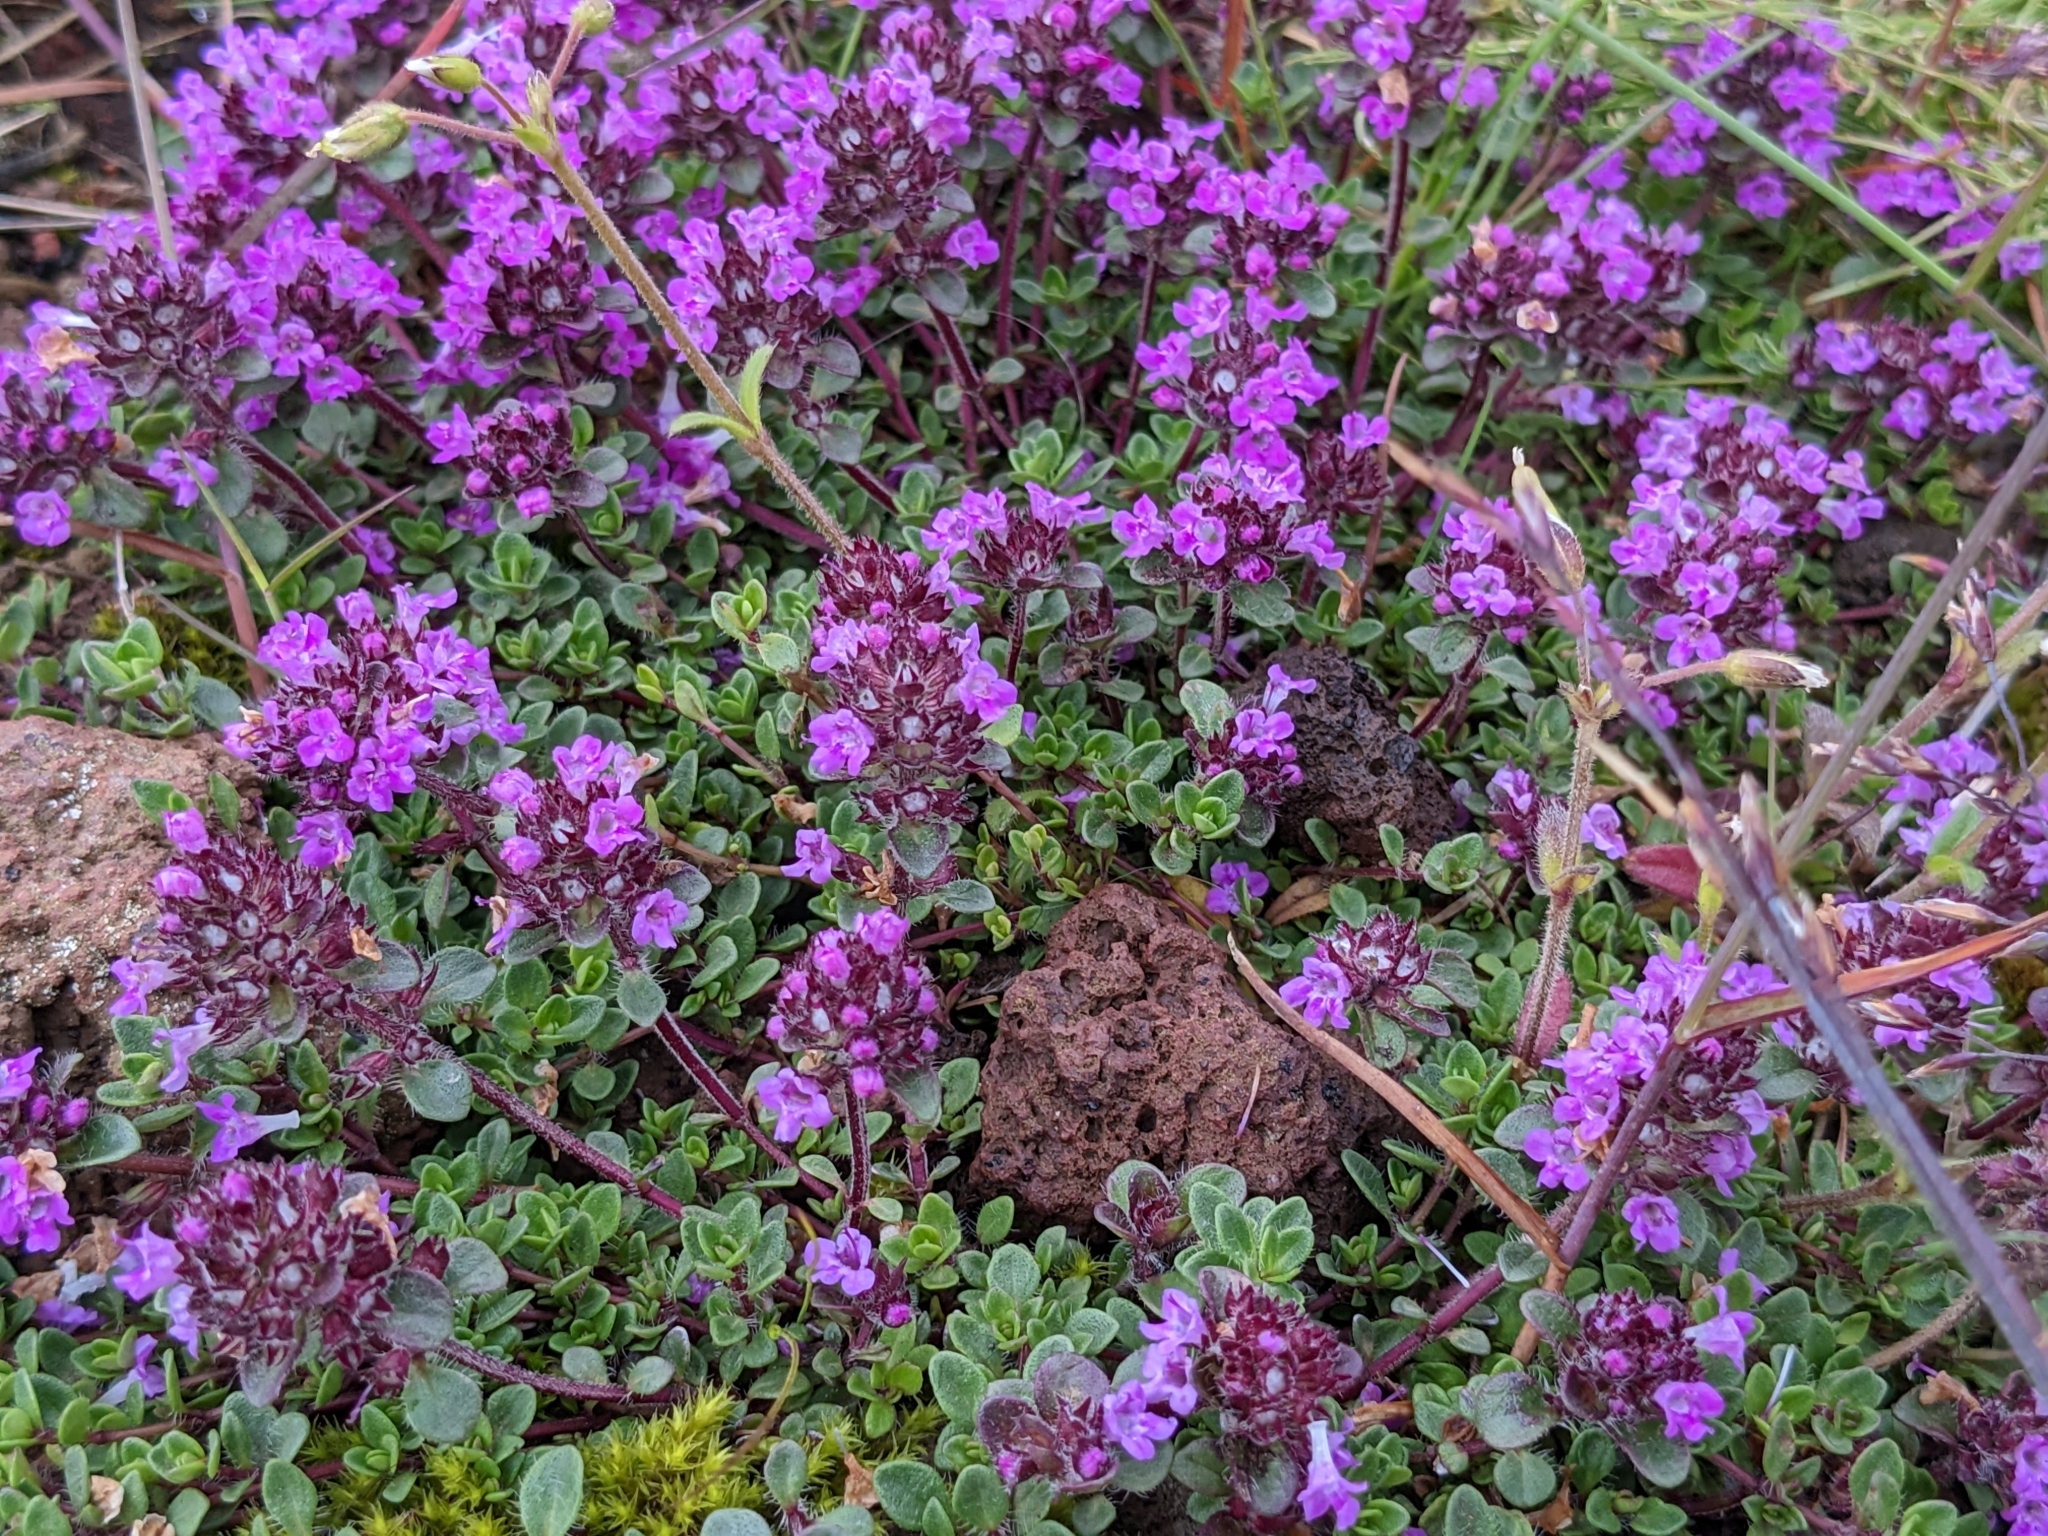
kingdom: Plantae
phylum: Tracheophyta
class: Magnoliopsida
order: Lamiales
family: Lamiaceae
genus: Thymus
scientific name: Thymus praecox
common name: Wild thyme
